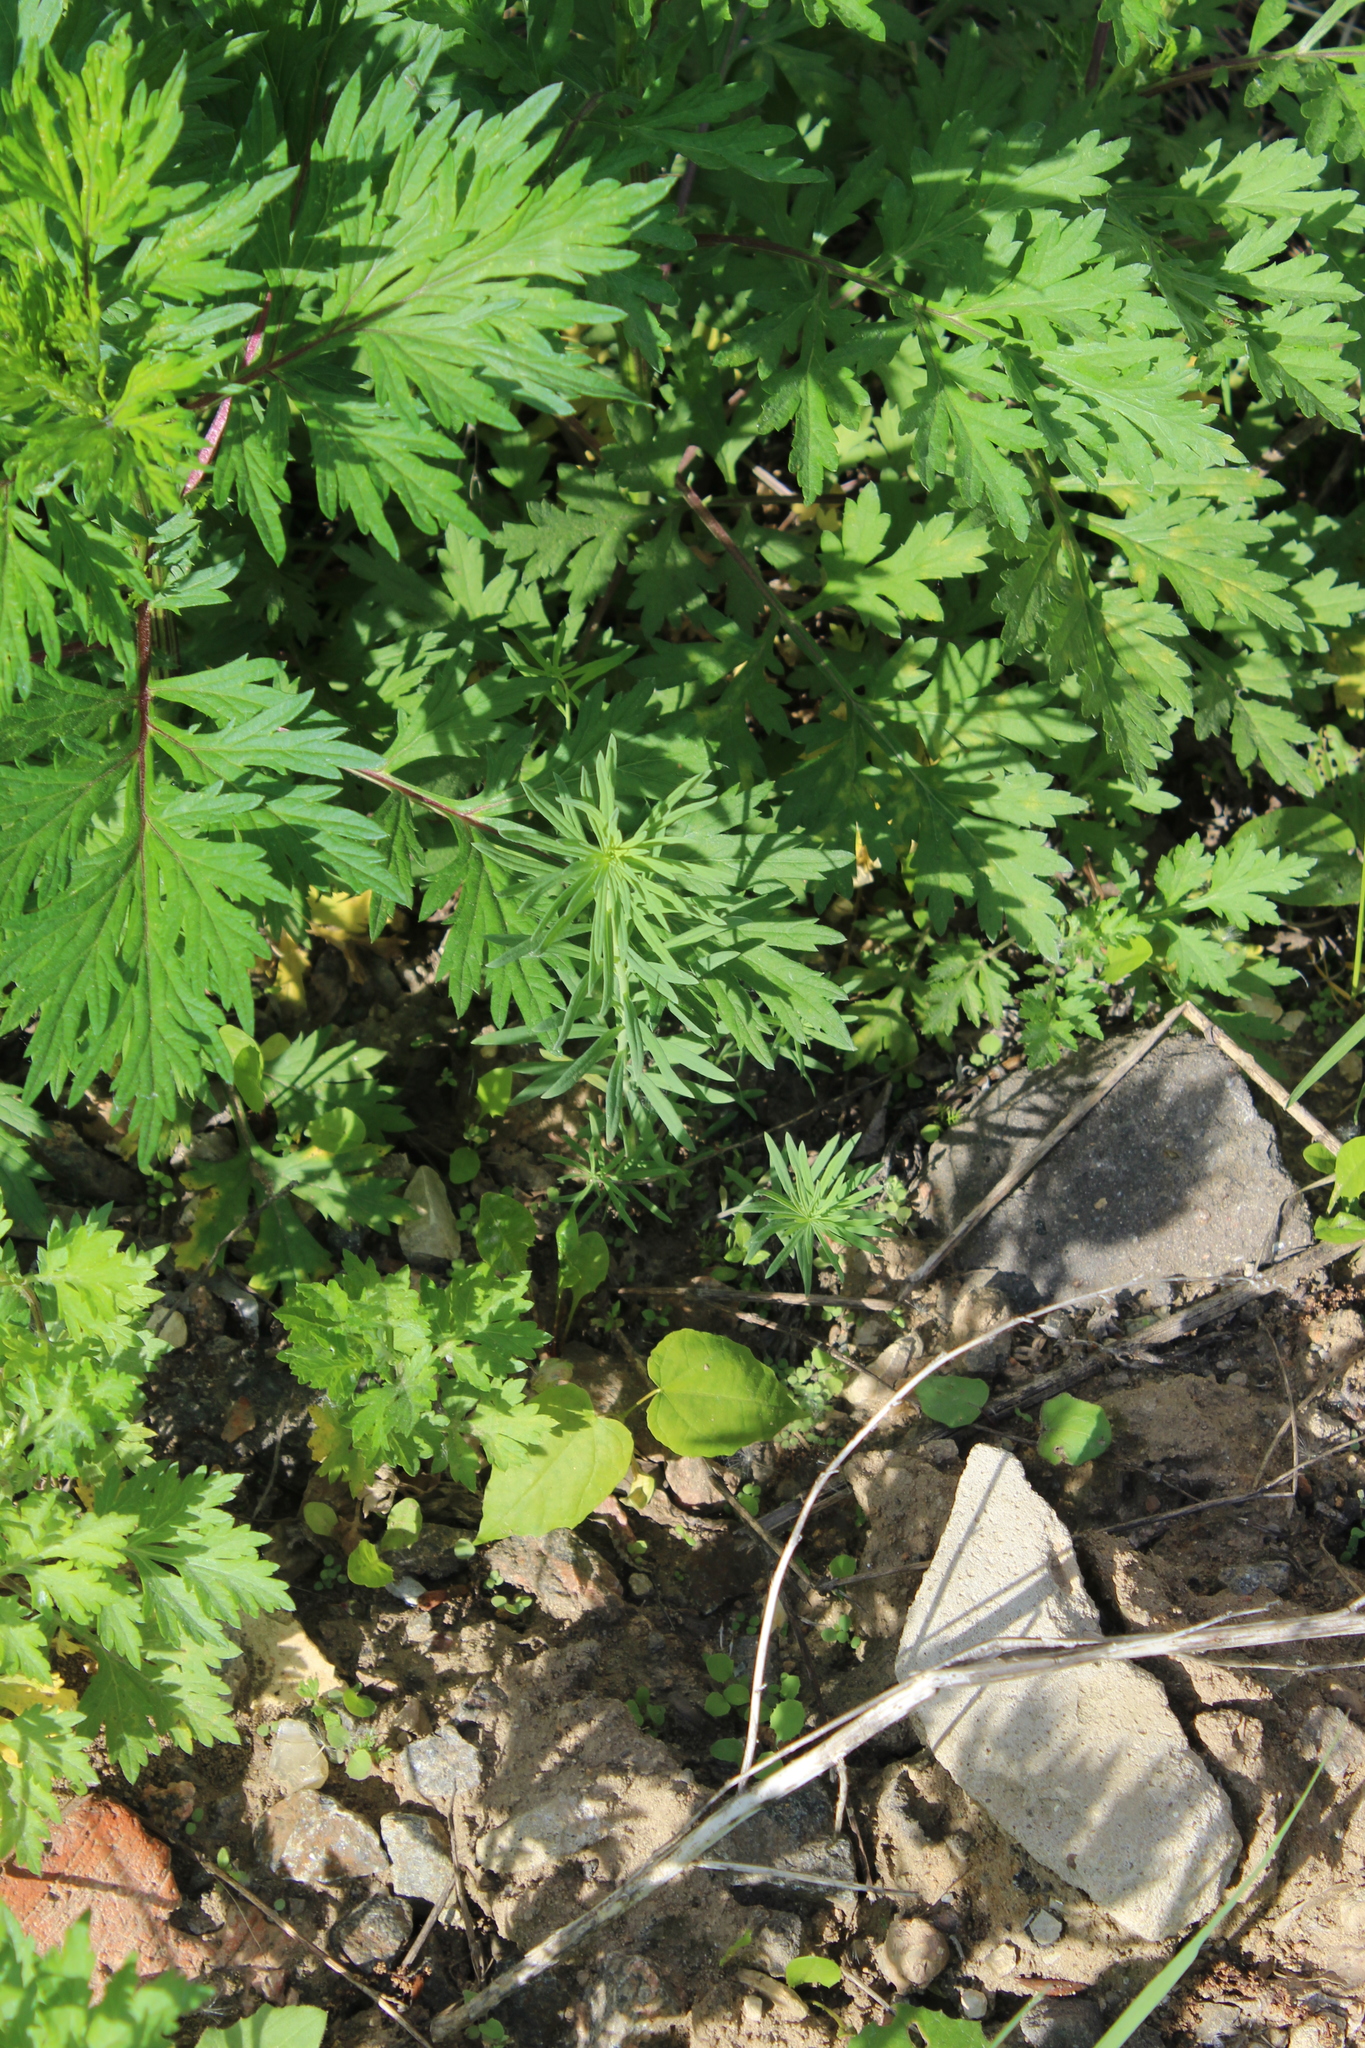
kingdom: Plantae
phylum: Tracheophyta
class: Magnoliopsida
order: Lamiales
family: Plantaginaceae
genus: Linaria
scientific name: Linaria vulgaris
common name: Butter and eggs
